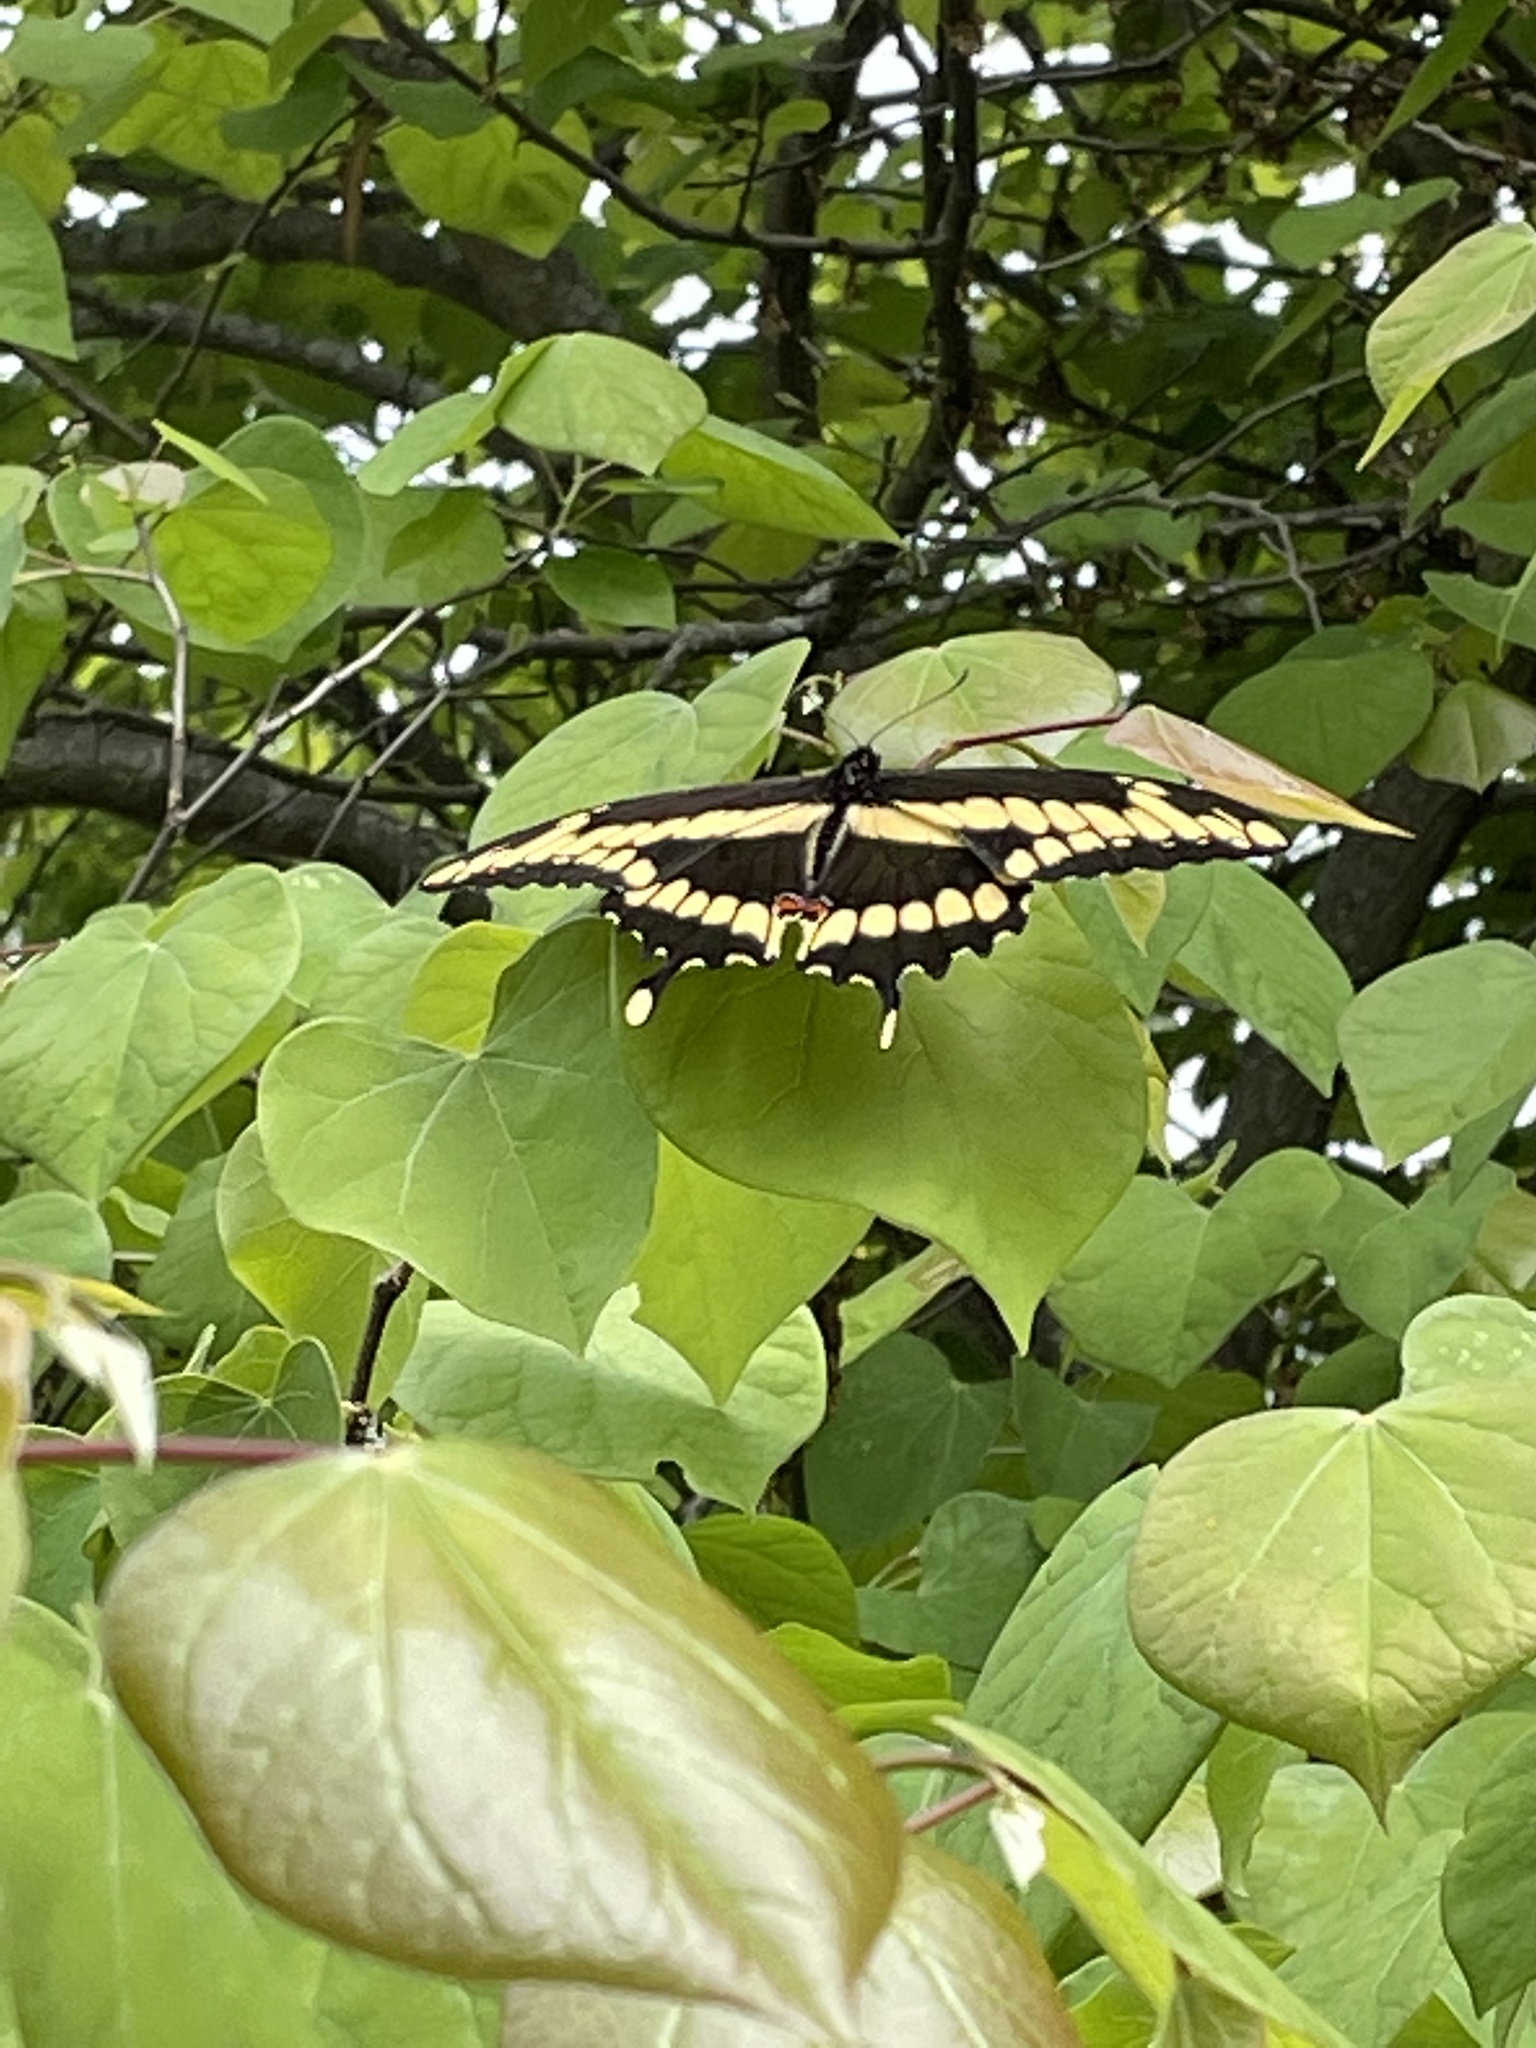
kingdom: Animalia
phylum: Arthropoda
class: Insecta
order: Lepidoptera
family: Papilionidae
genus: Papilio
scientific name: Papilio cresphontes
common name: Giant swallowtail
